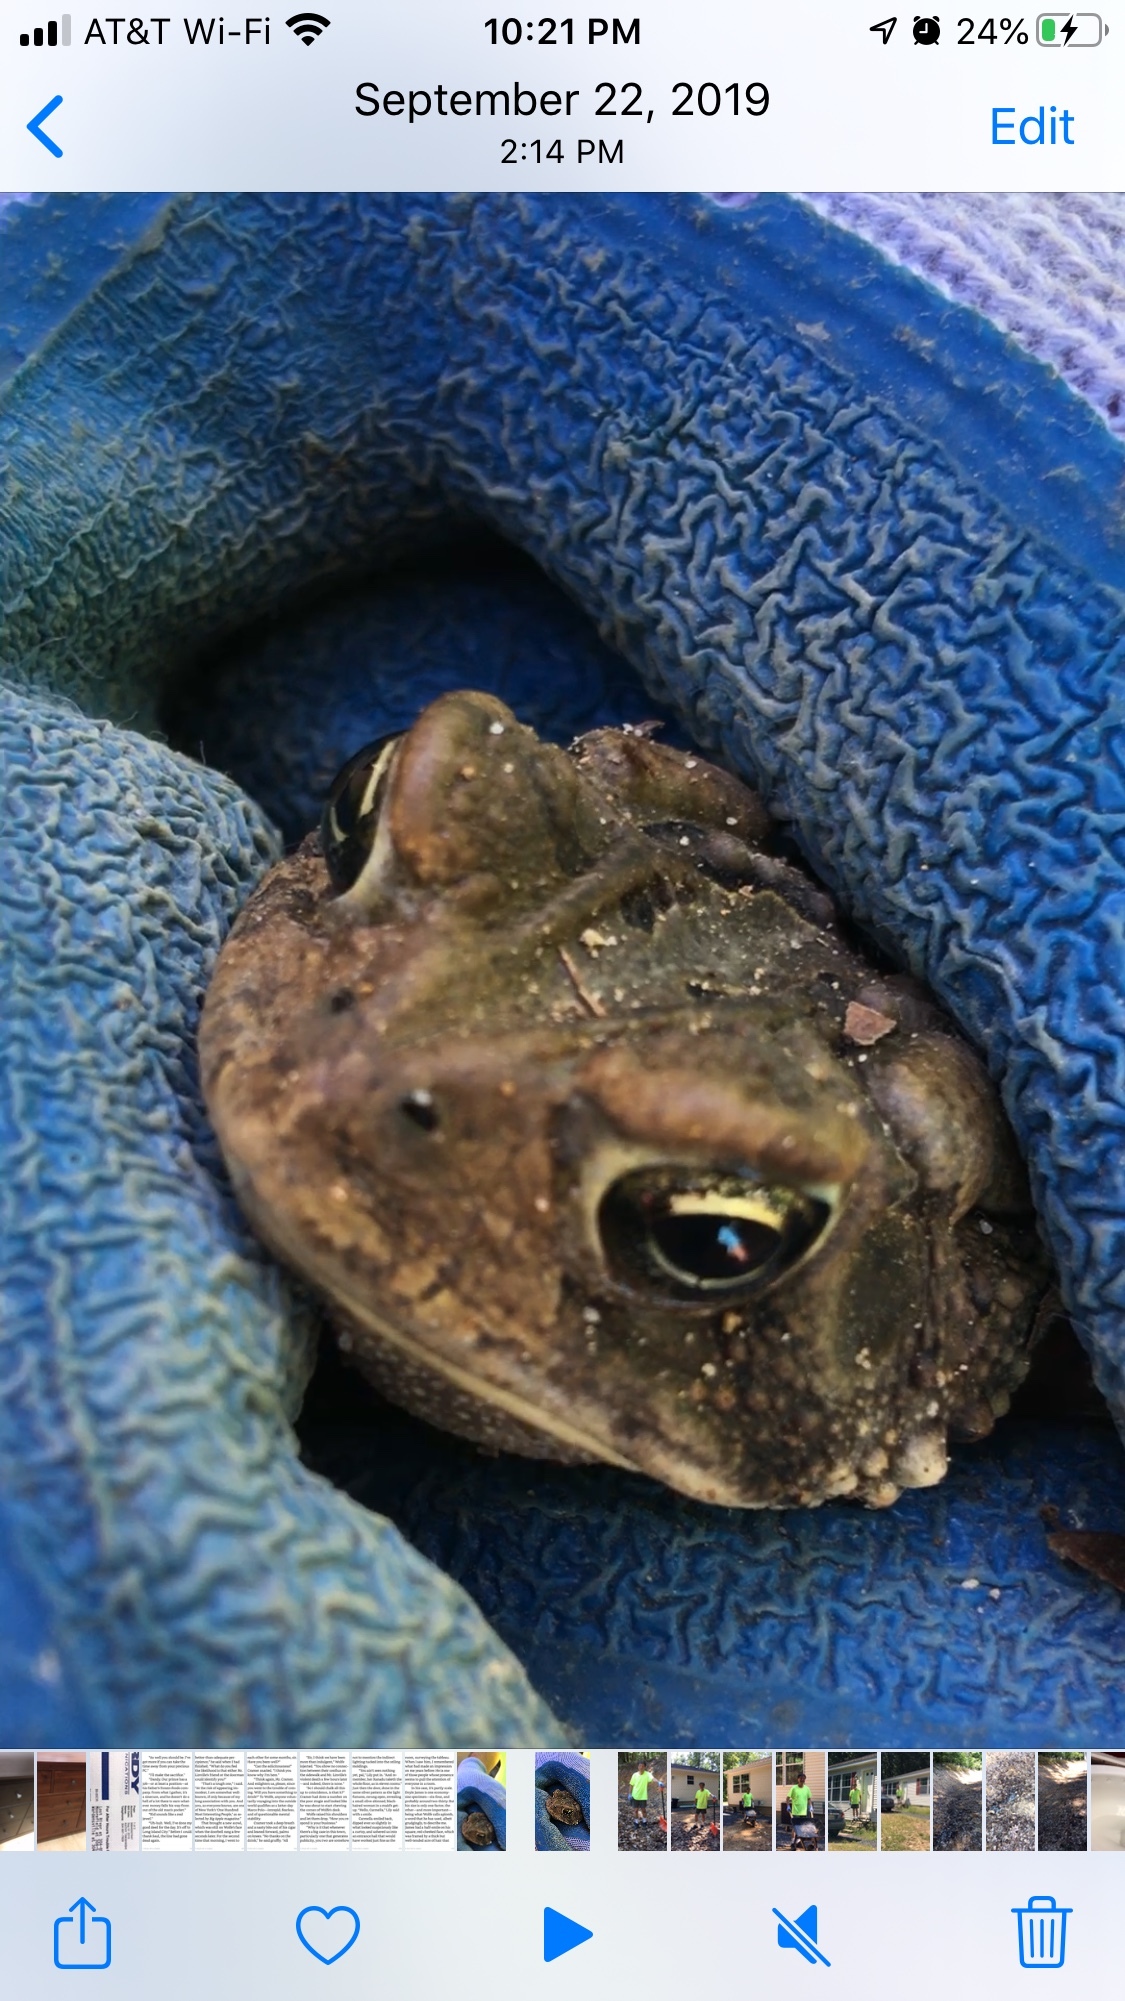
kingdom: Animalia
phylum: Chordata
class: Amphibia
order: Anura
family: Bufonidae
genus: Anaxyrus
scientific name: Anaxyrus americanus
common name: American toad
